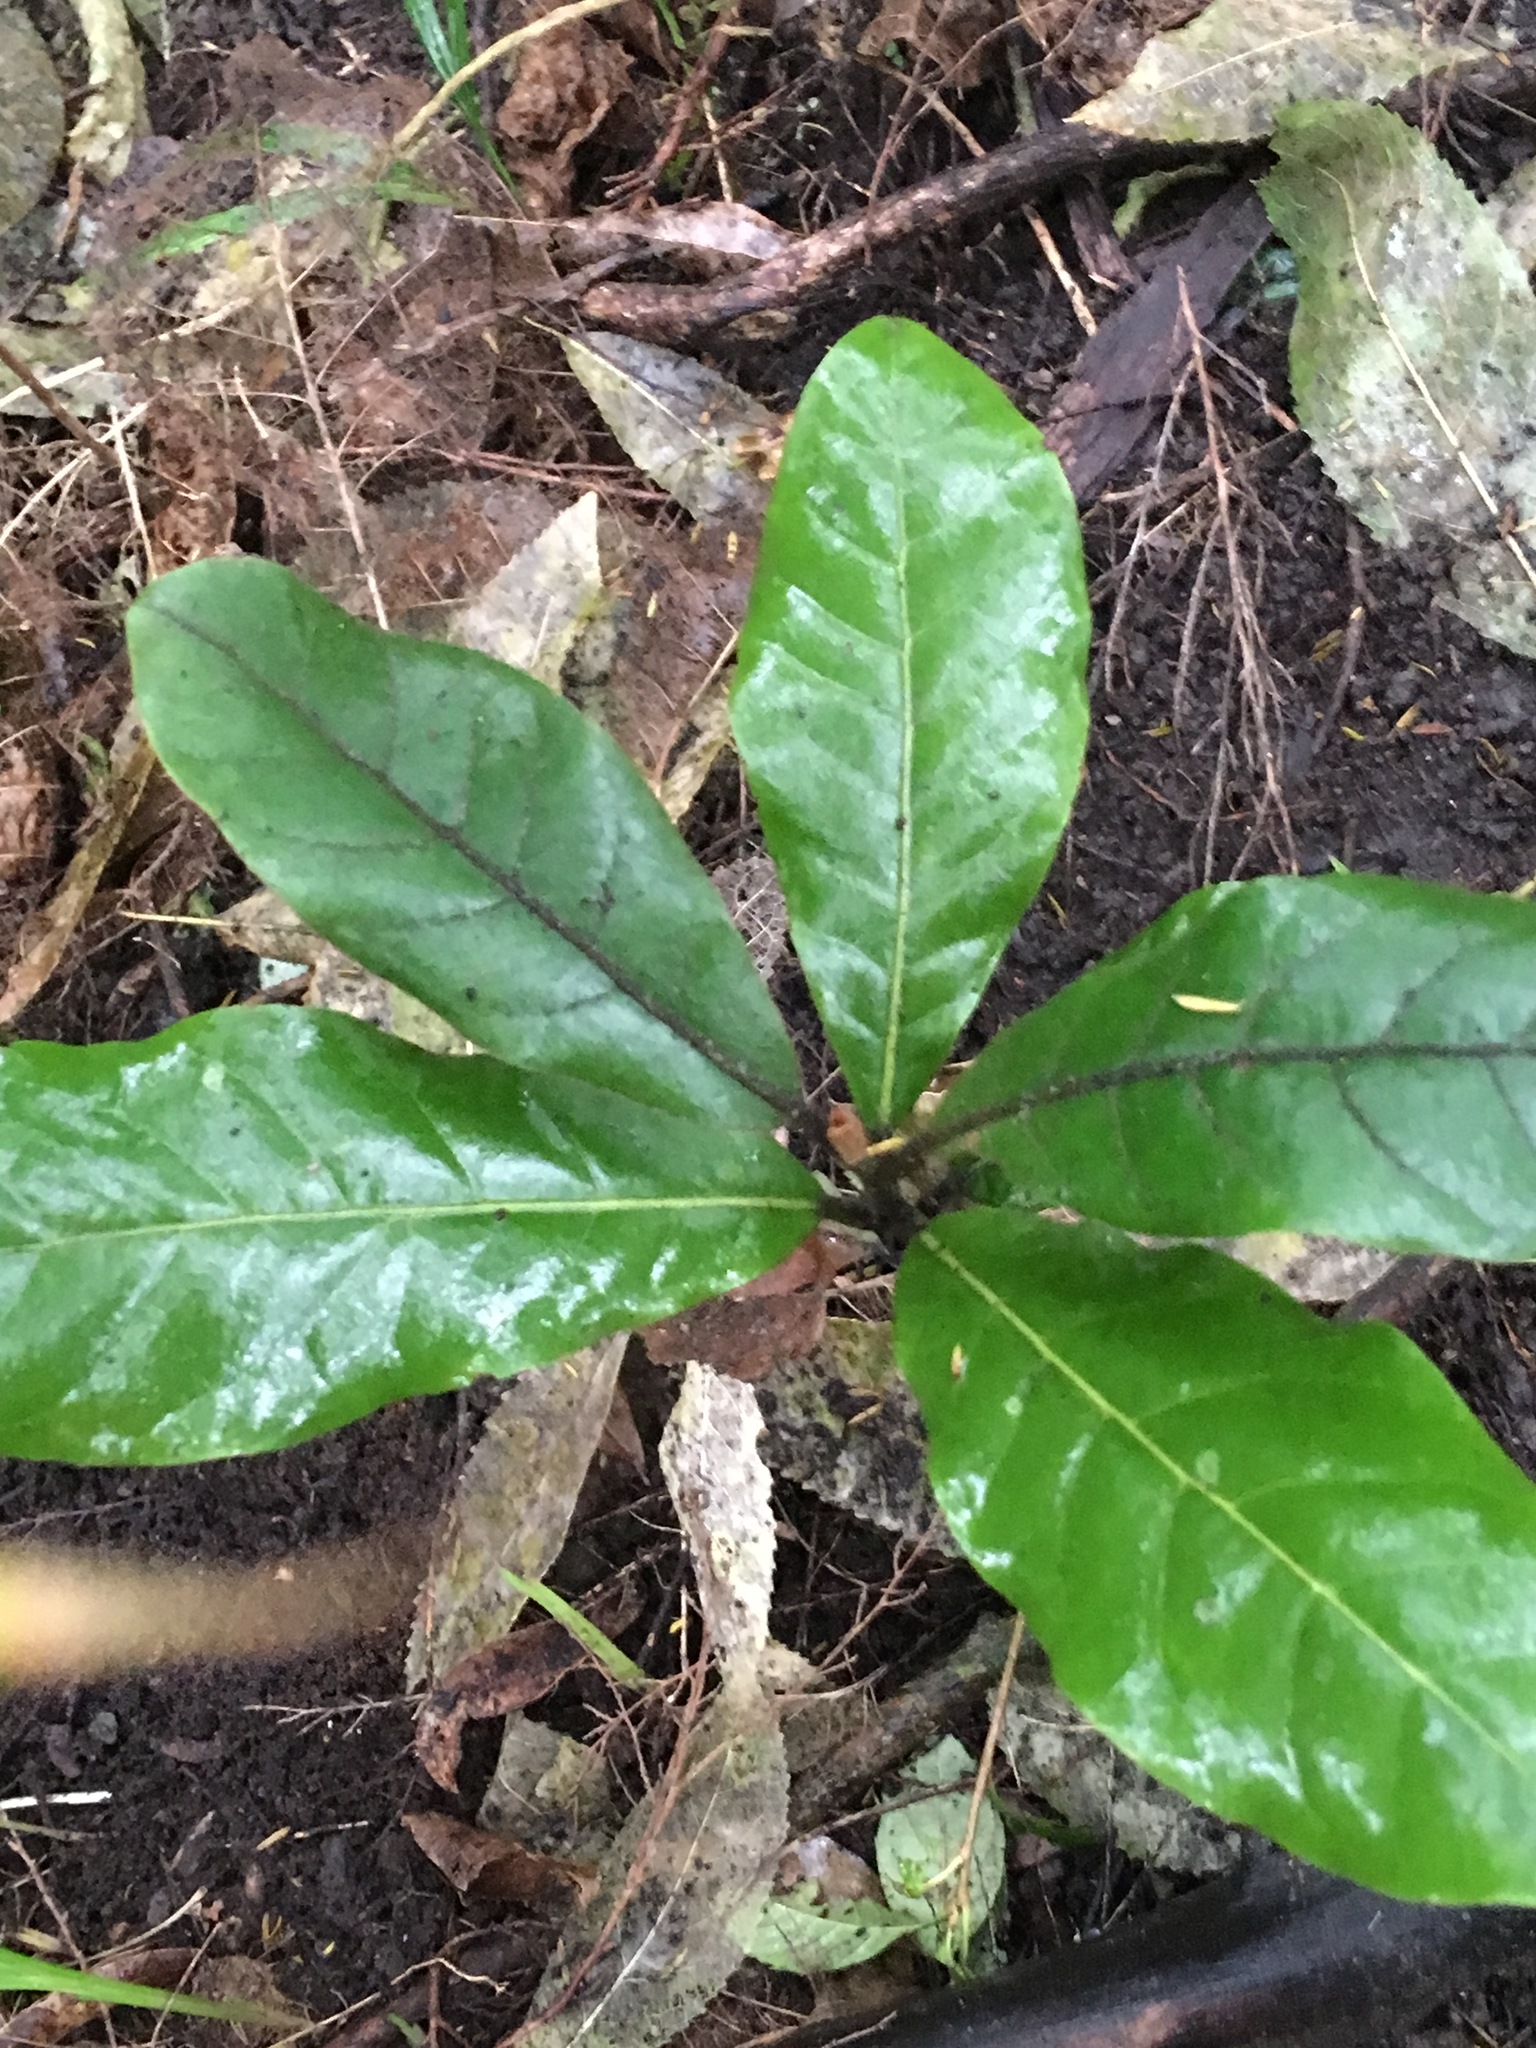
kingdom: Plantae
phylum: Tracheophyta
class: Magnoliopsida
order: Laurales
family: Lauraceae
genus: Beilschmiedia
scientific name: Beilschmiedia tarairi
